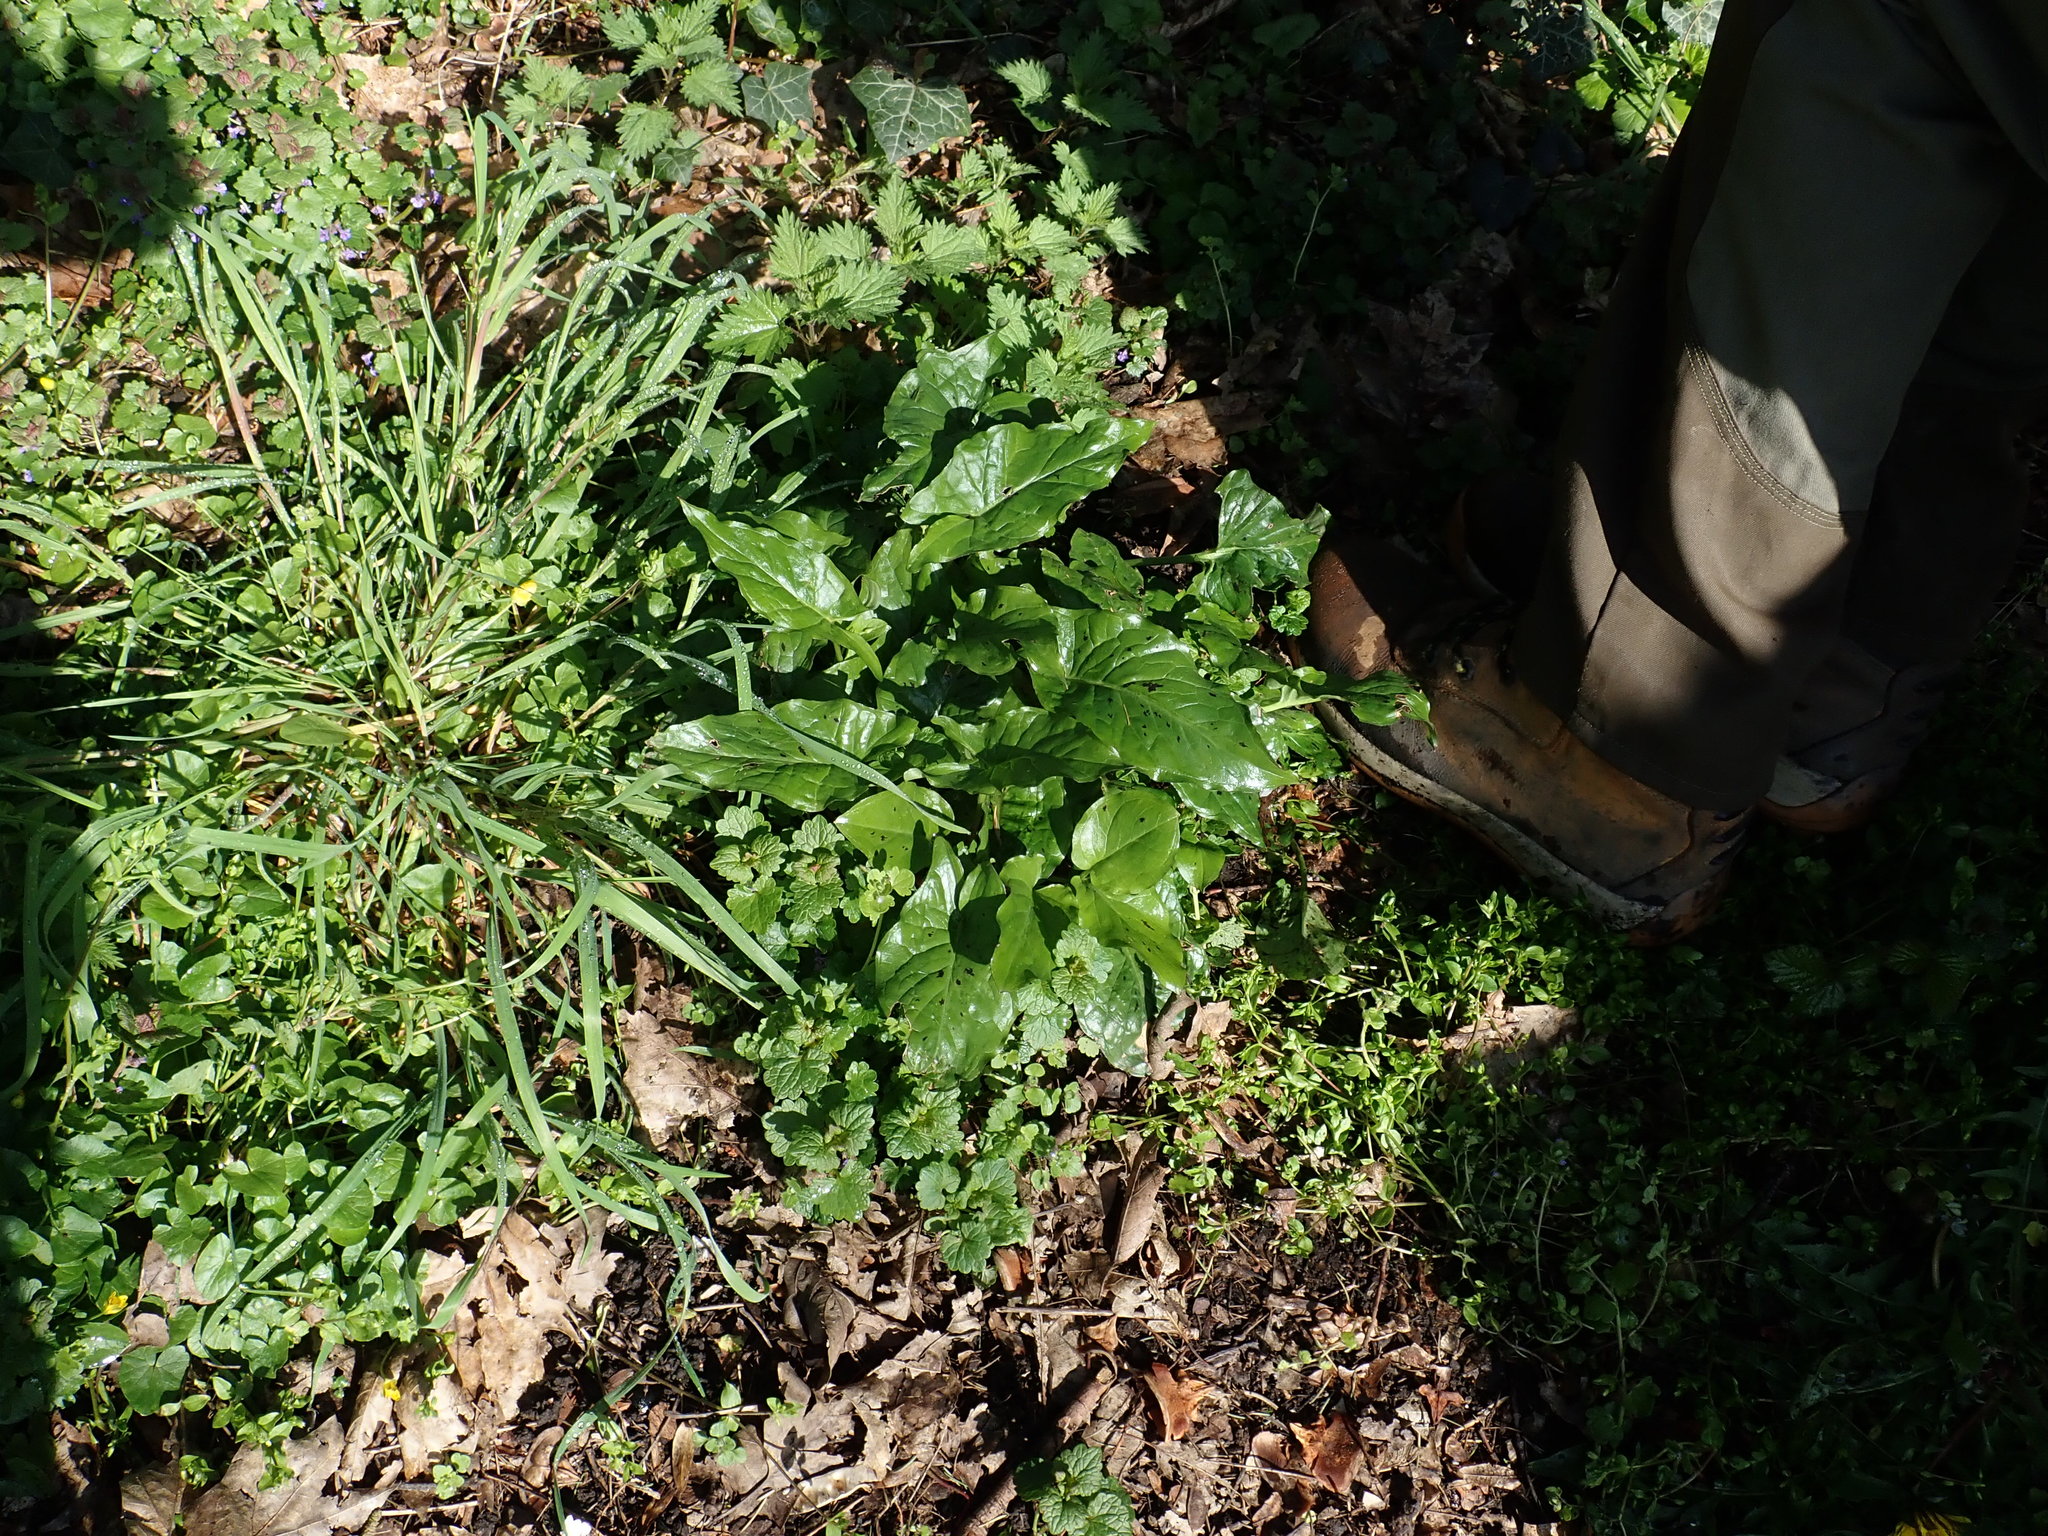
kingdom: Plantae
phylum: Tracheophyta
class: Liliopsida
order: Alismatales
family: Araceae
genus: Arum
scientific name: Arum maculatum
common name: Lords-and-ladies
